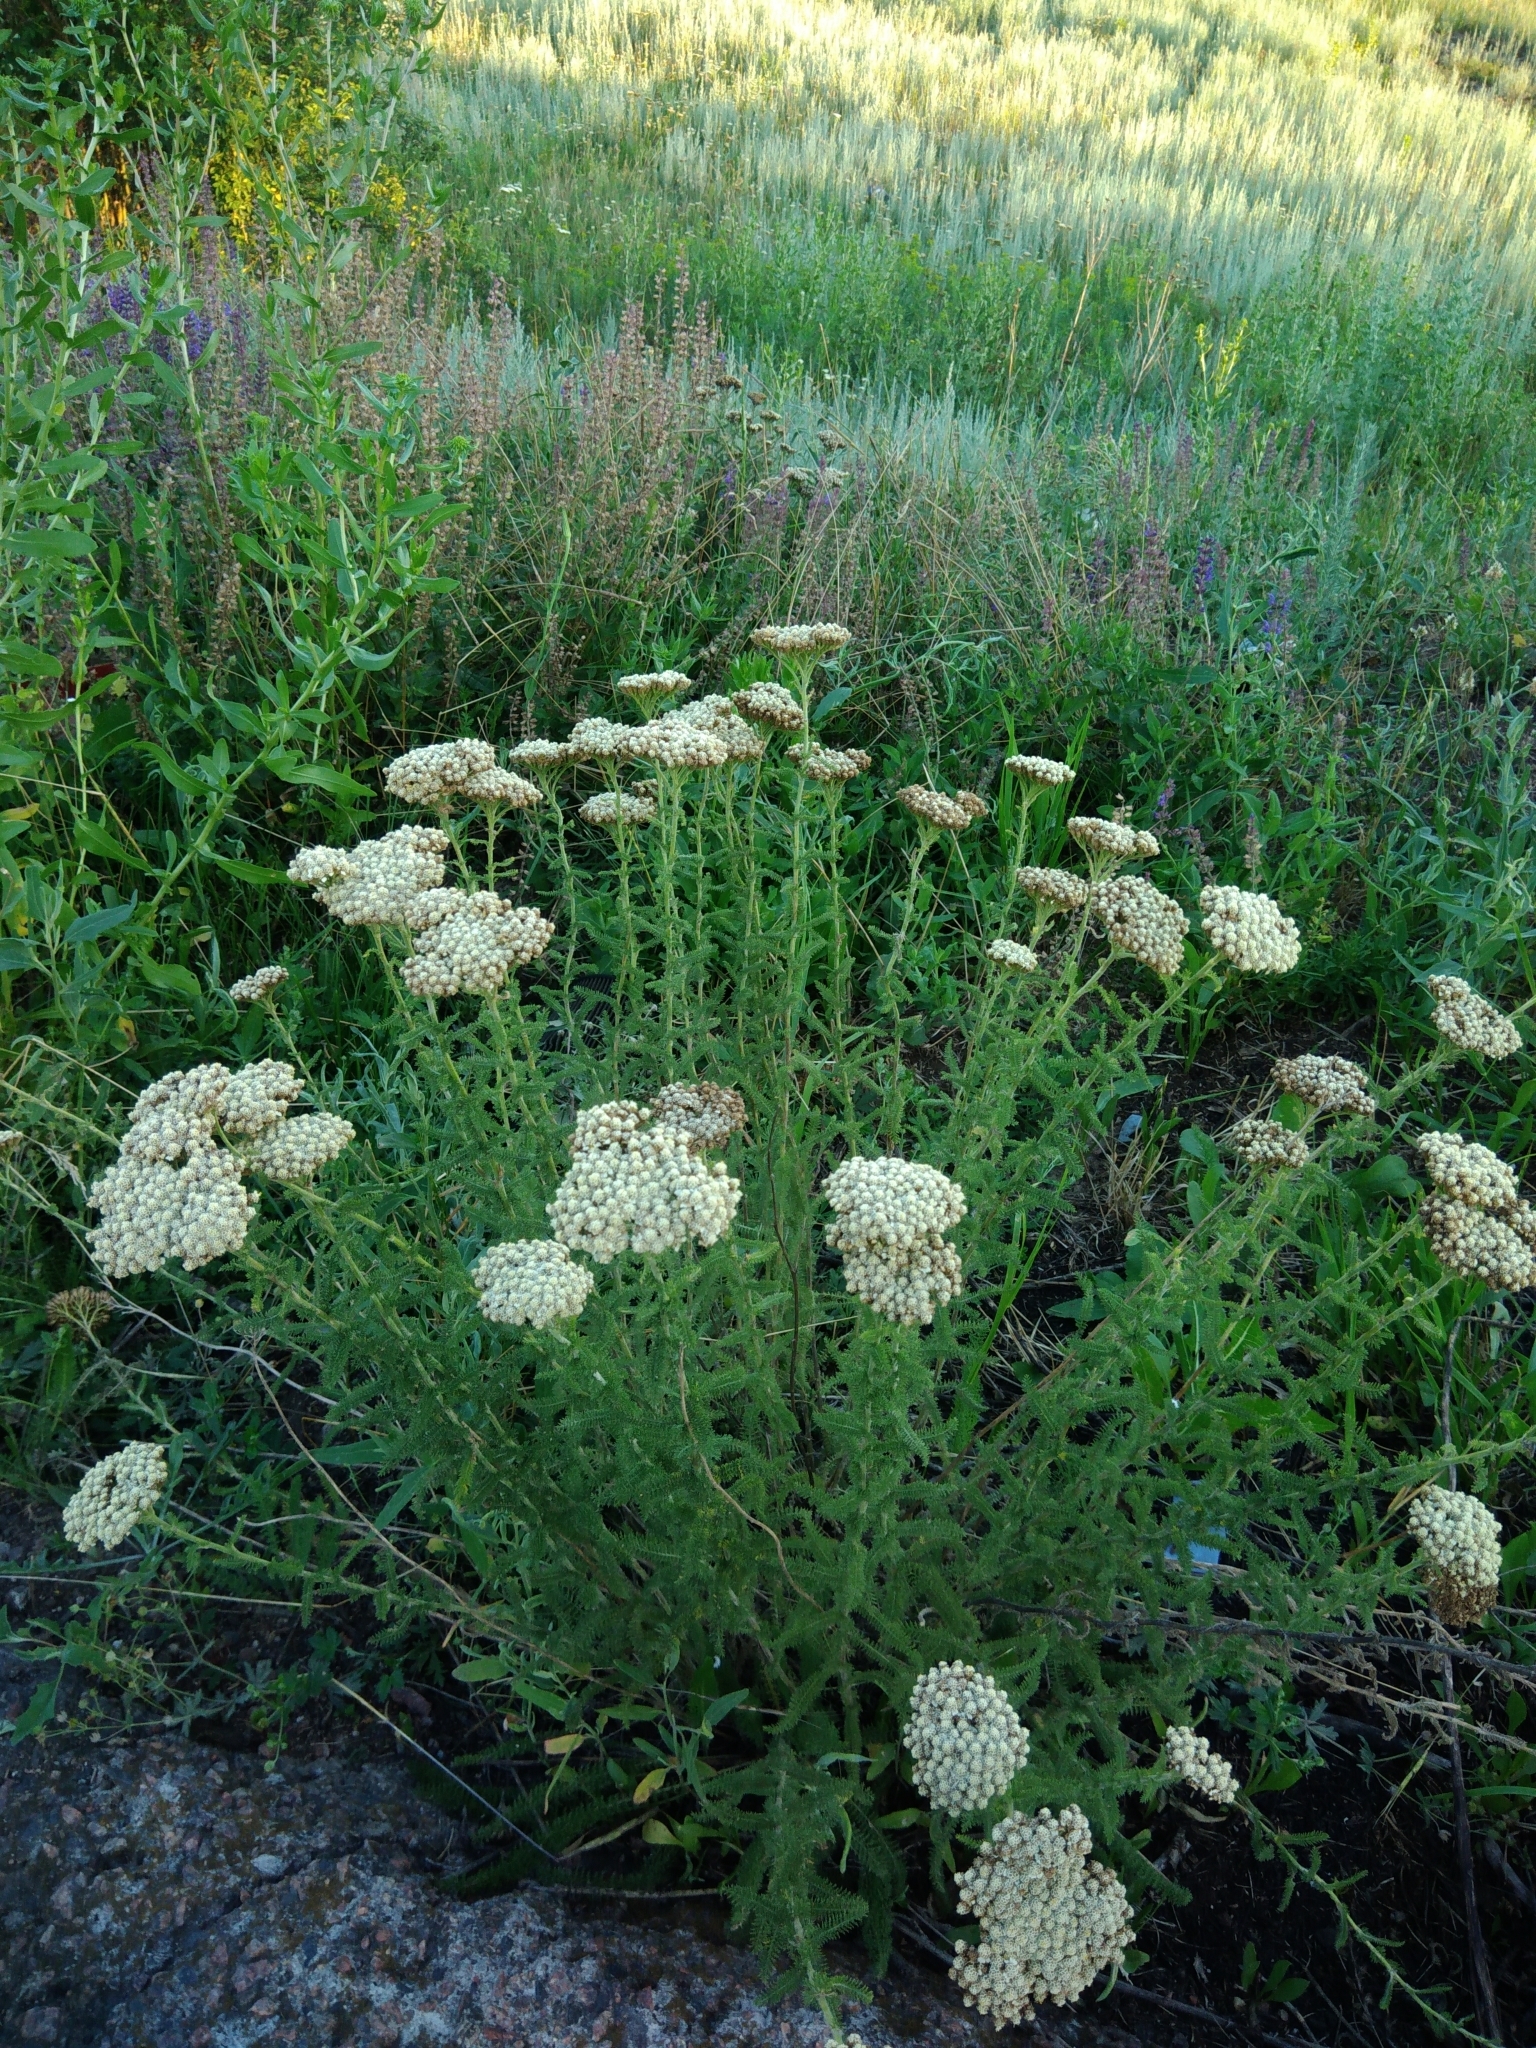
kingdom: Plantae
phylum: Tracheophyta
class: Magnoliopsida
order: Asterales
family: Asteraceae
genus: Achillea
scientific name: Achillea setacea
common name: Bristly yarrow
